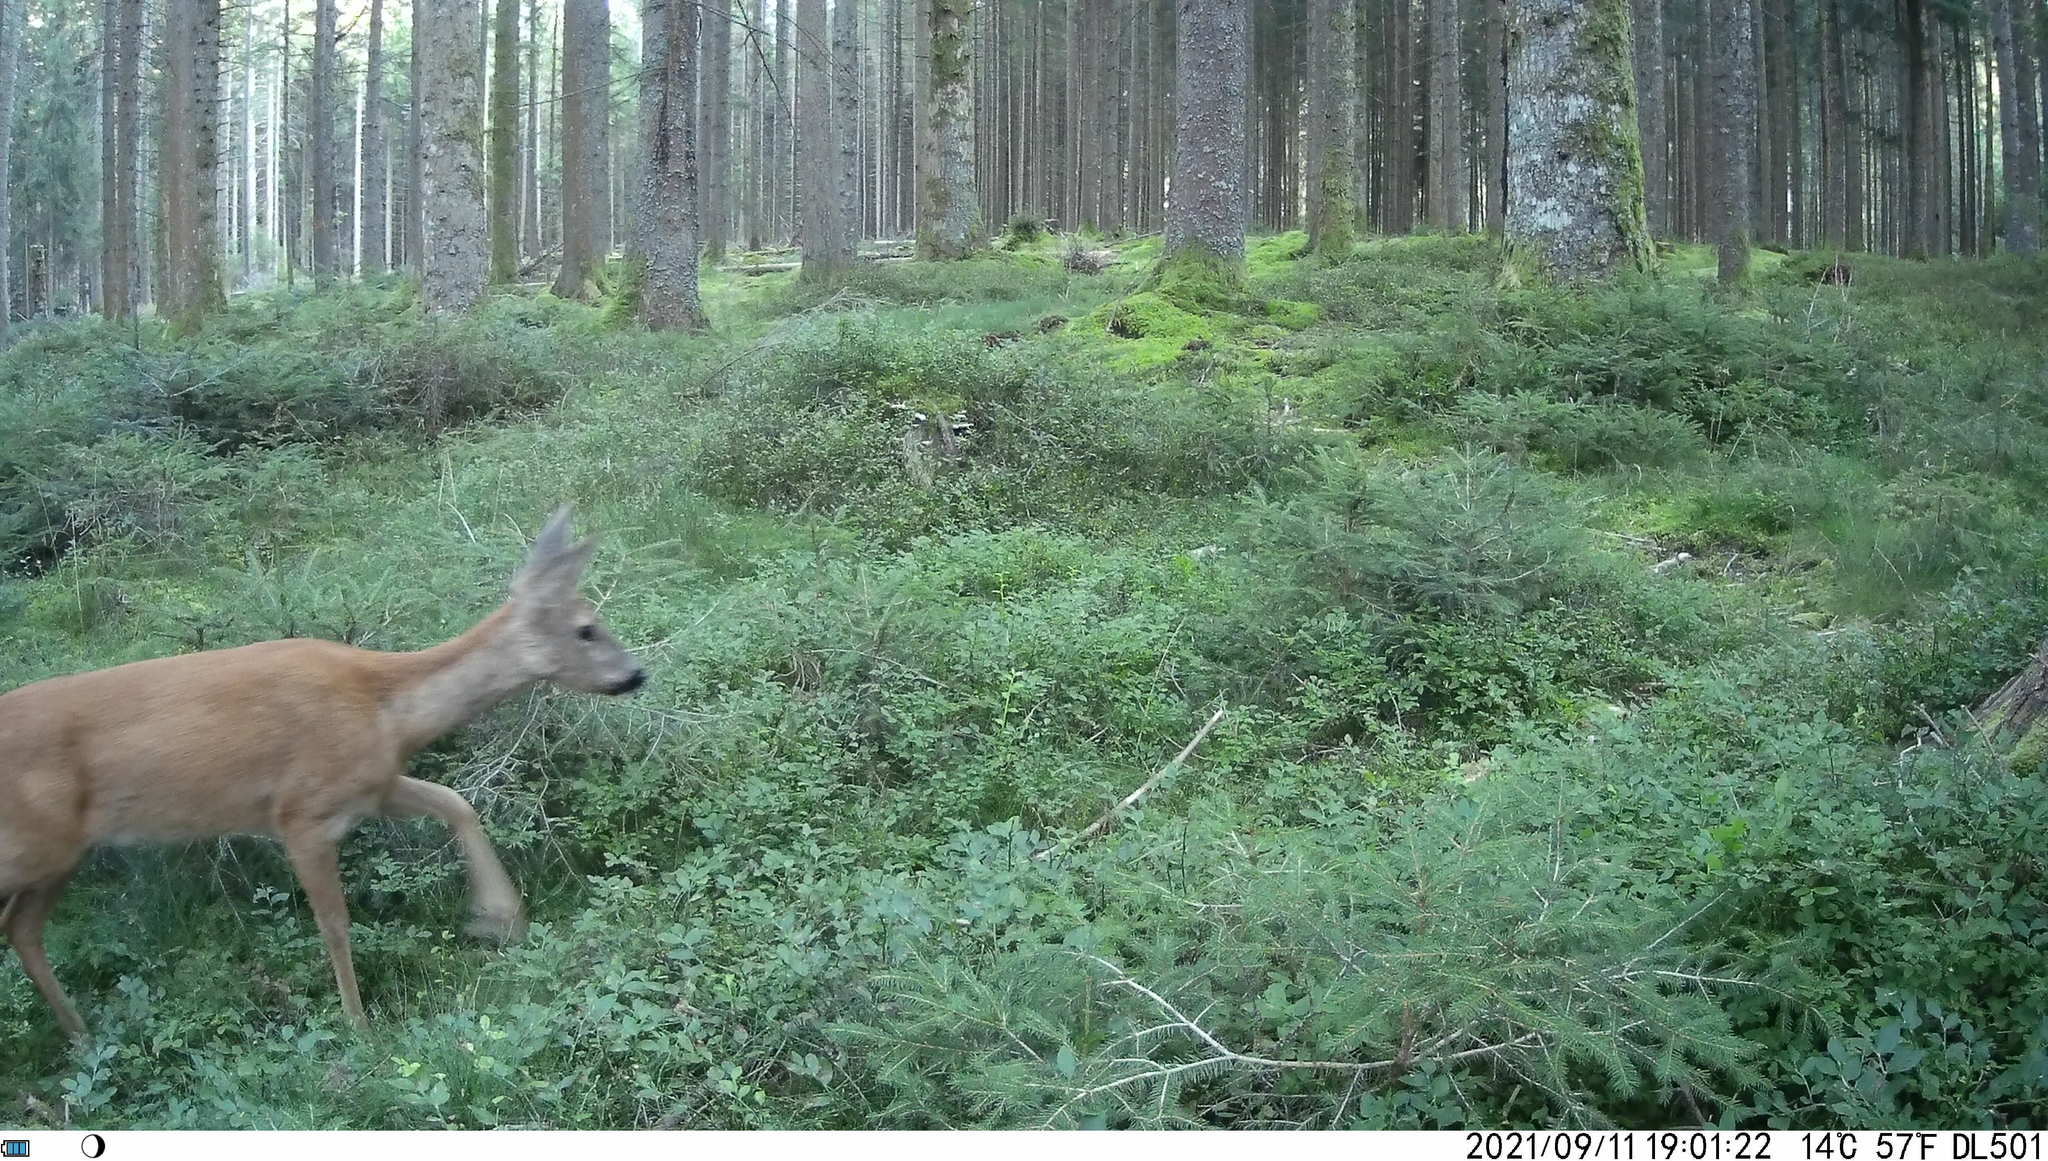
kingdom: Animalia
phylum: Chordata
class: Mammalia
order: Artiodactyla
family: Cervidae
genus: Capreolus
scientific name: Capreolus capreolus
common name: Western roe deer
